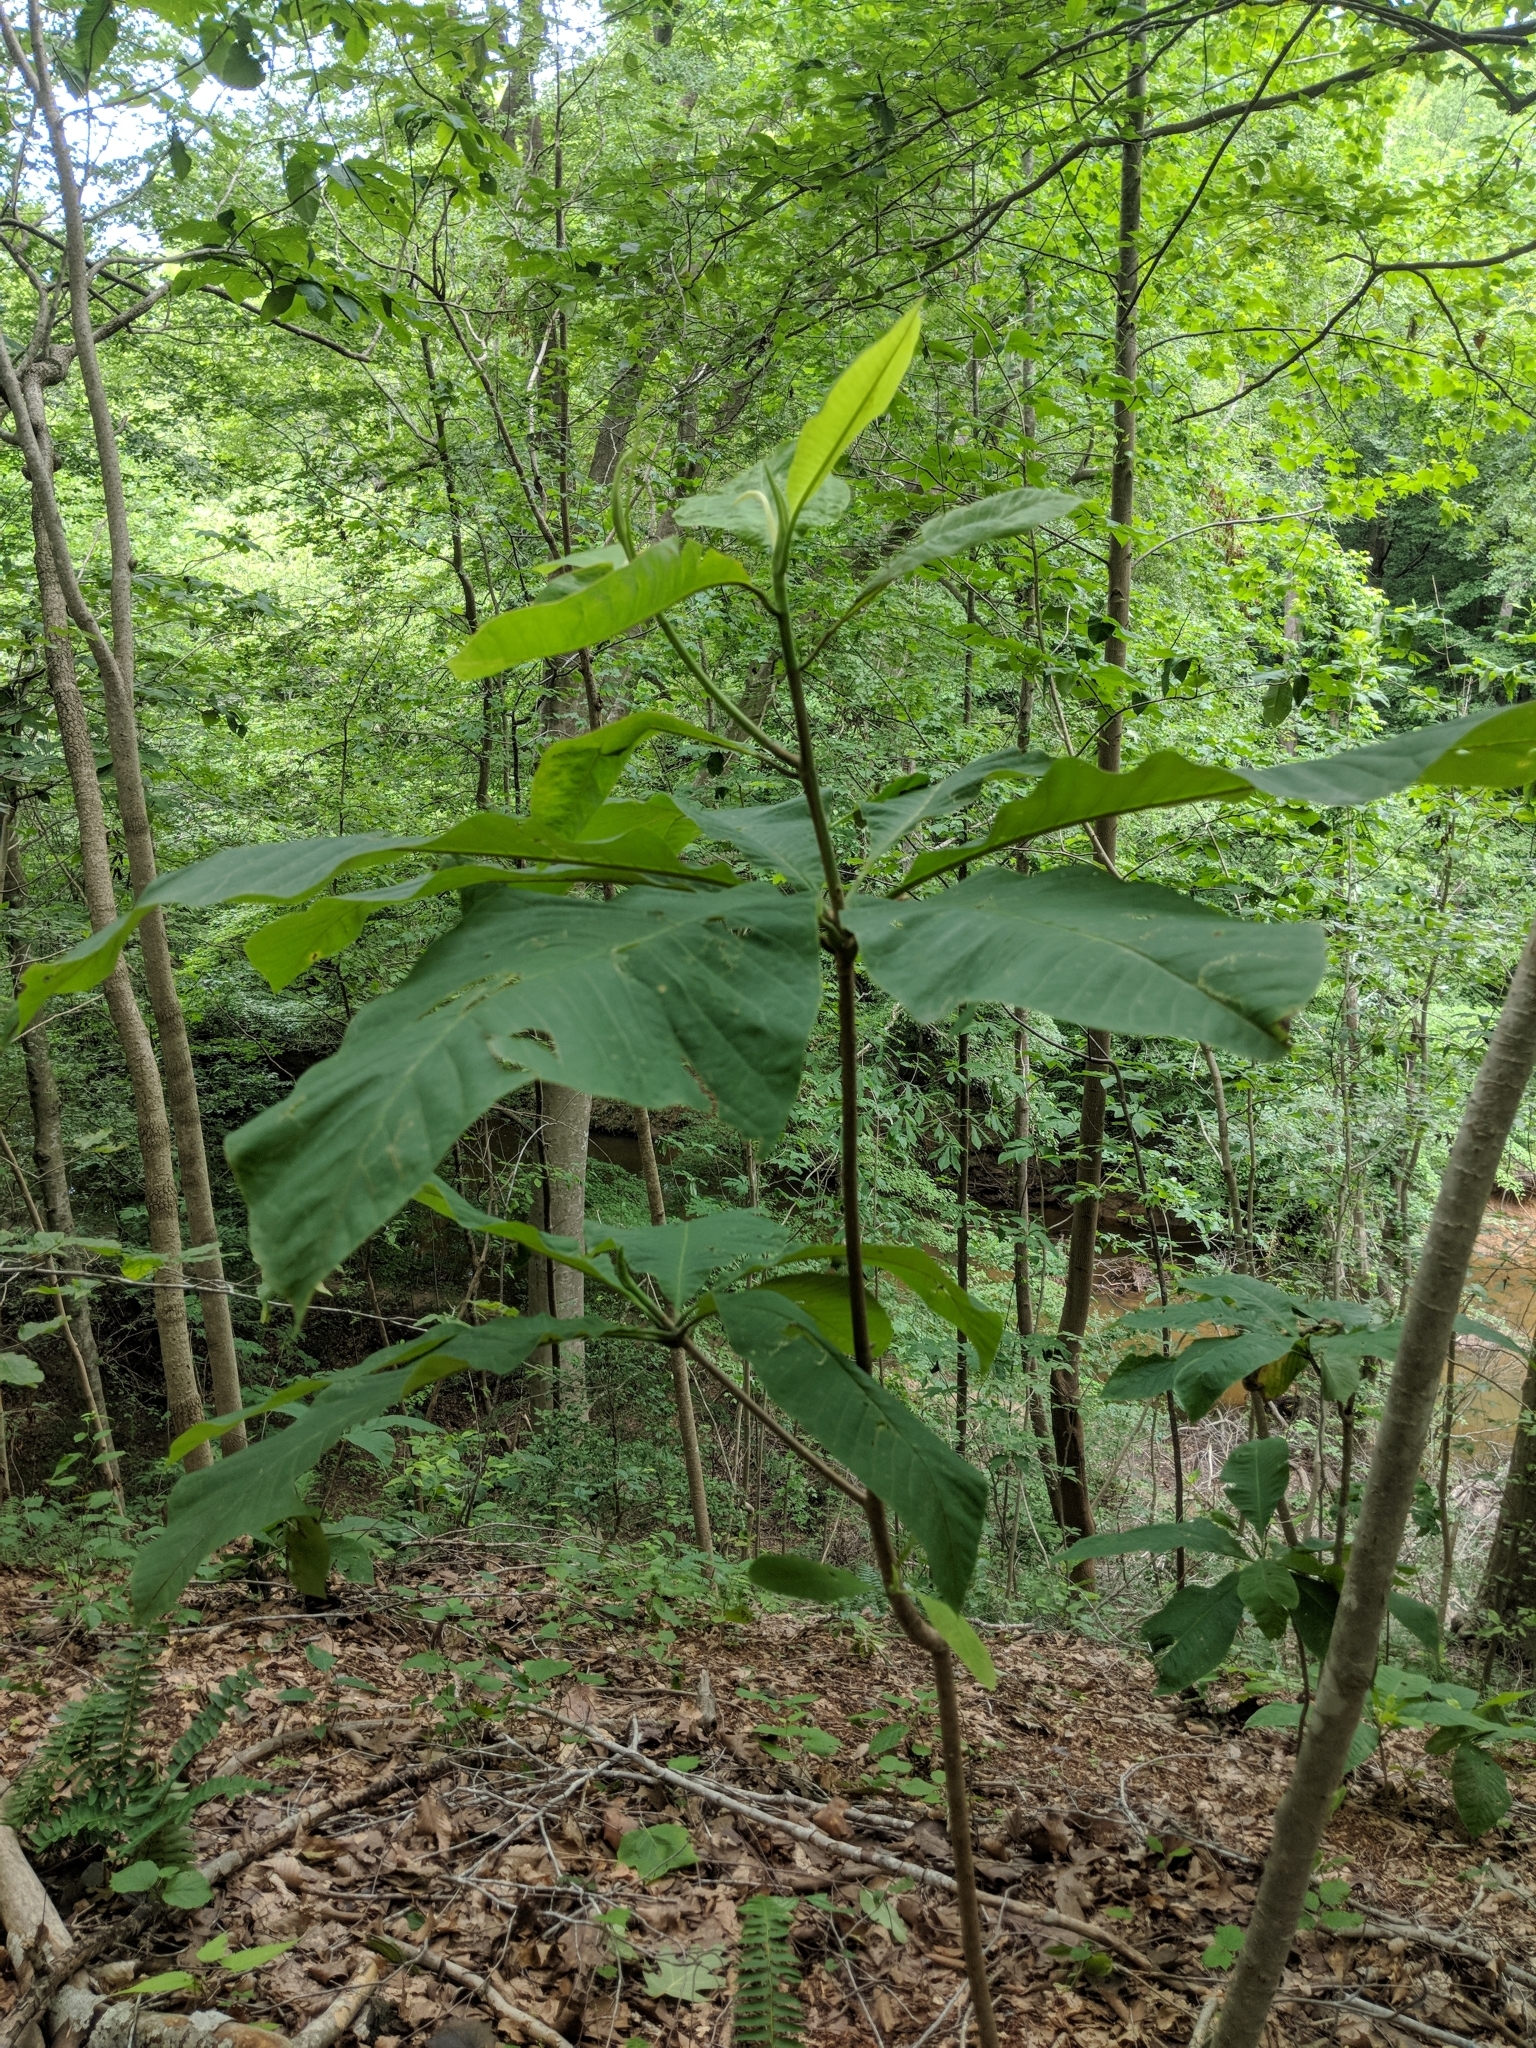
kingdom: Plantae
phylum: Tracheophyta
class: Magnoliopsida
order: Magnoliales
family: Magnoliaceae
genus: Magnolia
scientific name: Magnolia tripetala
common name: Umbrella magnolia
